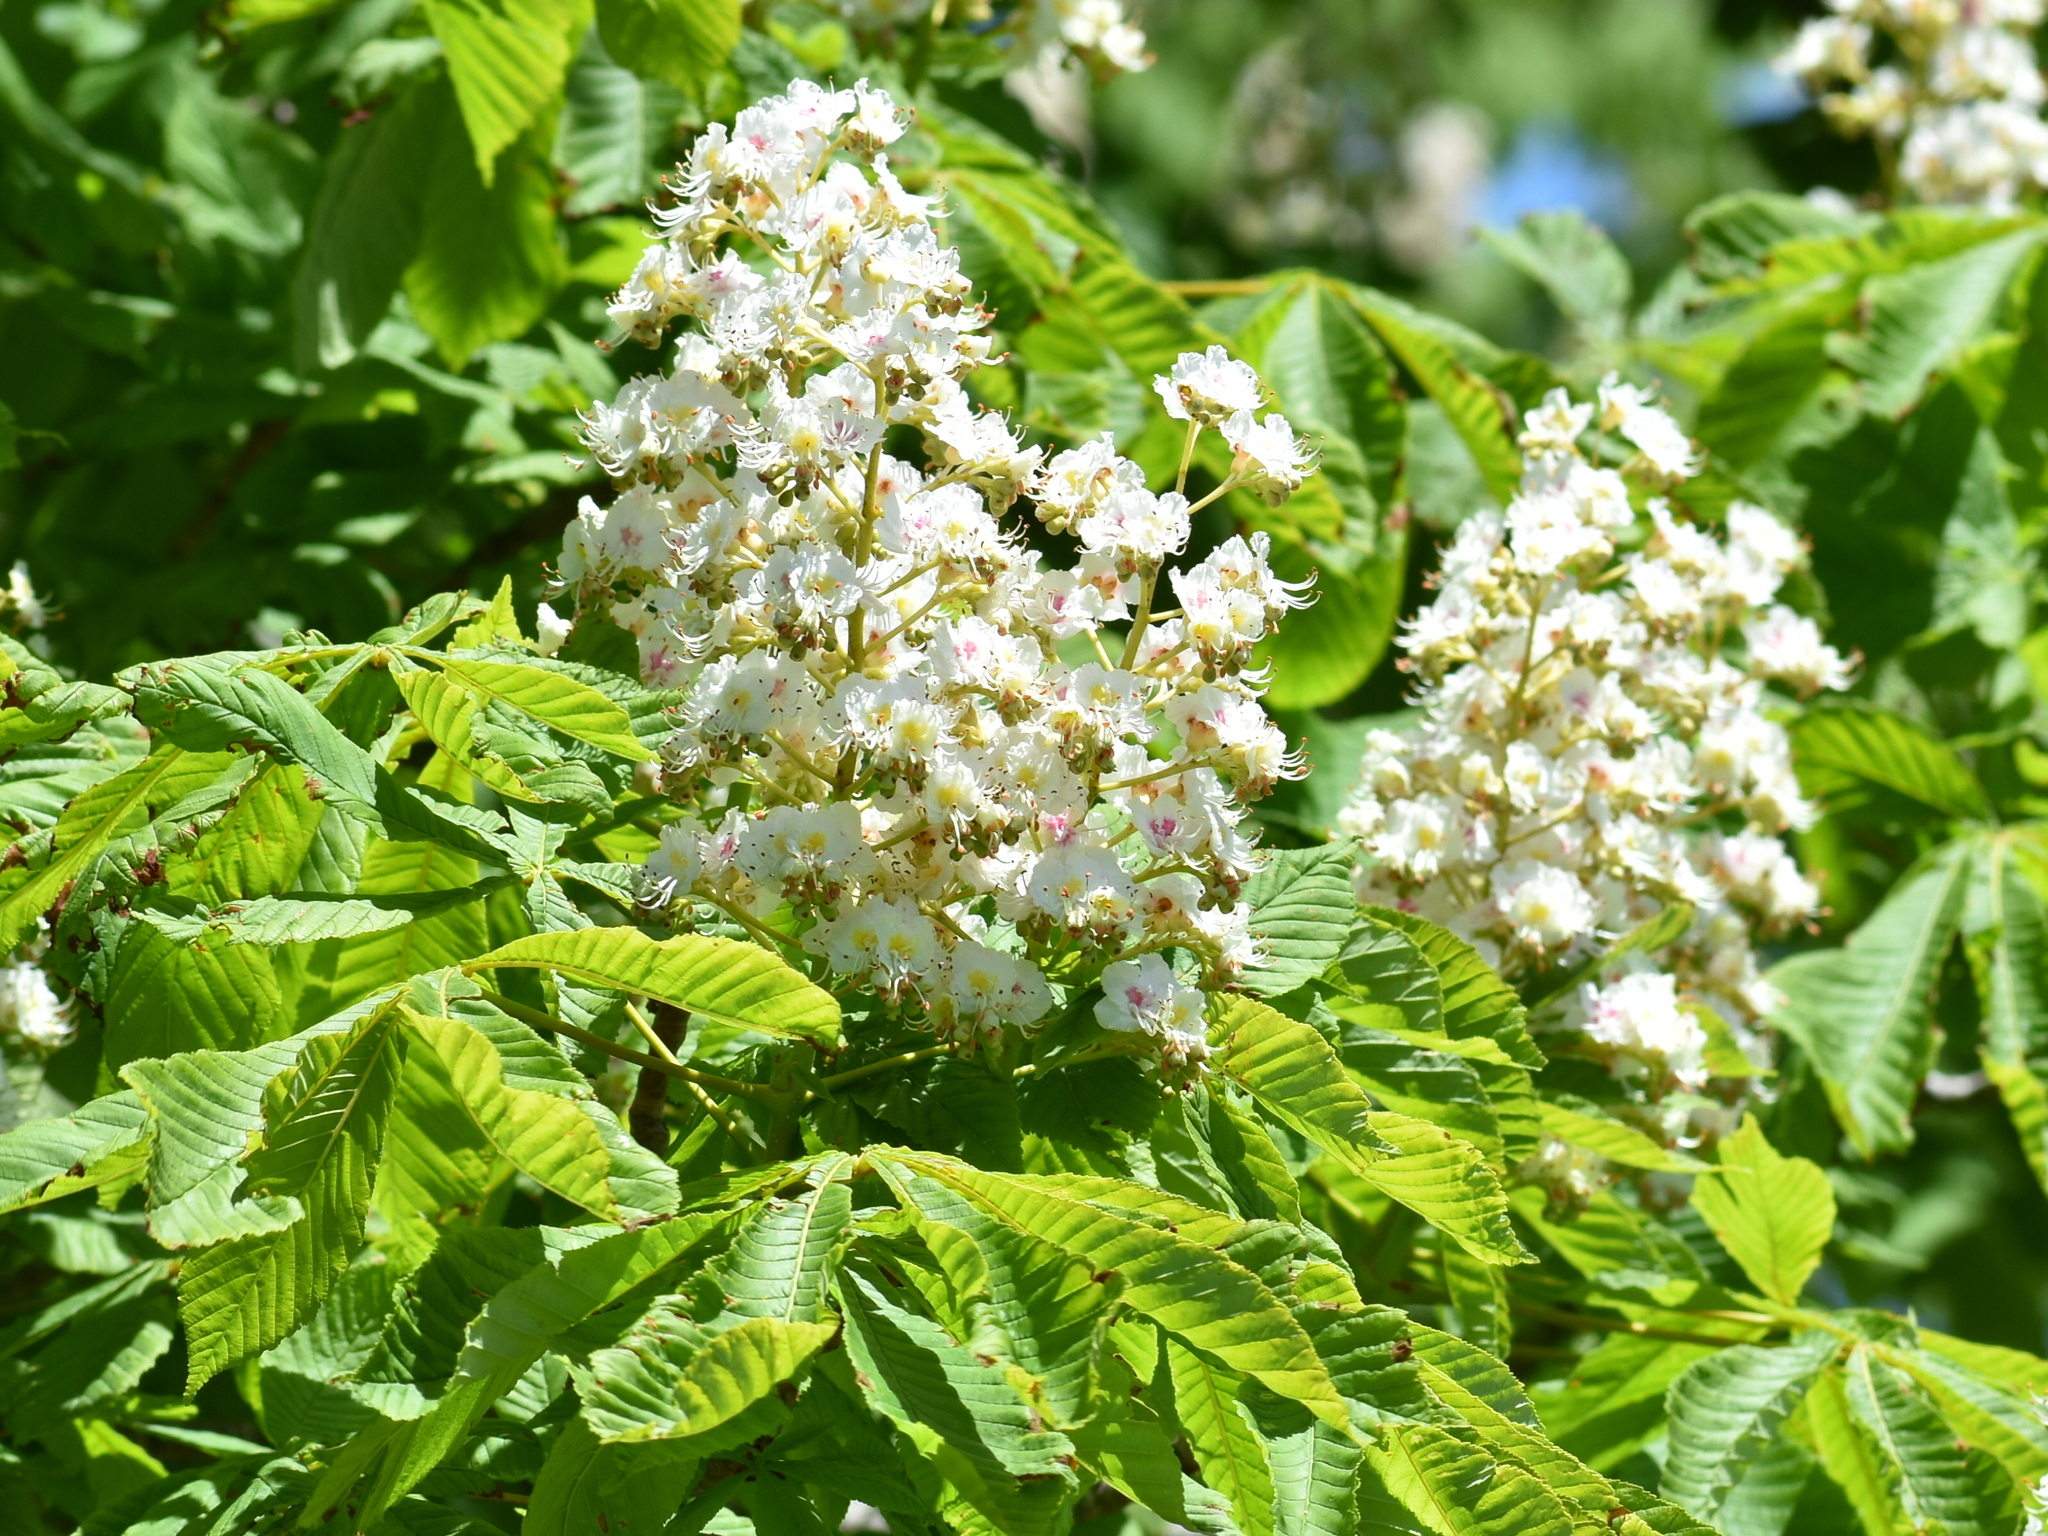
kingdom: Plantae
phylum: Tracheophyta
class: Magnoliopsida
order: Sapindales
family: Sapindaceae
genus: Aesculus
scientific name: Aesculus hippocastanum
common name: Horse-chestnut
